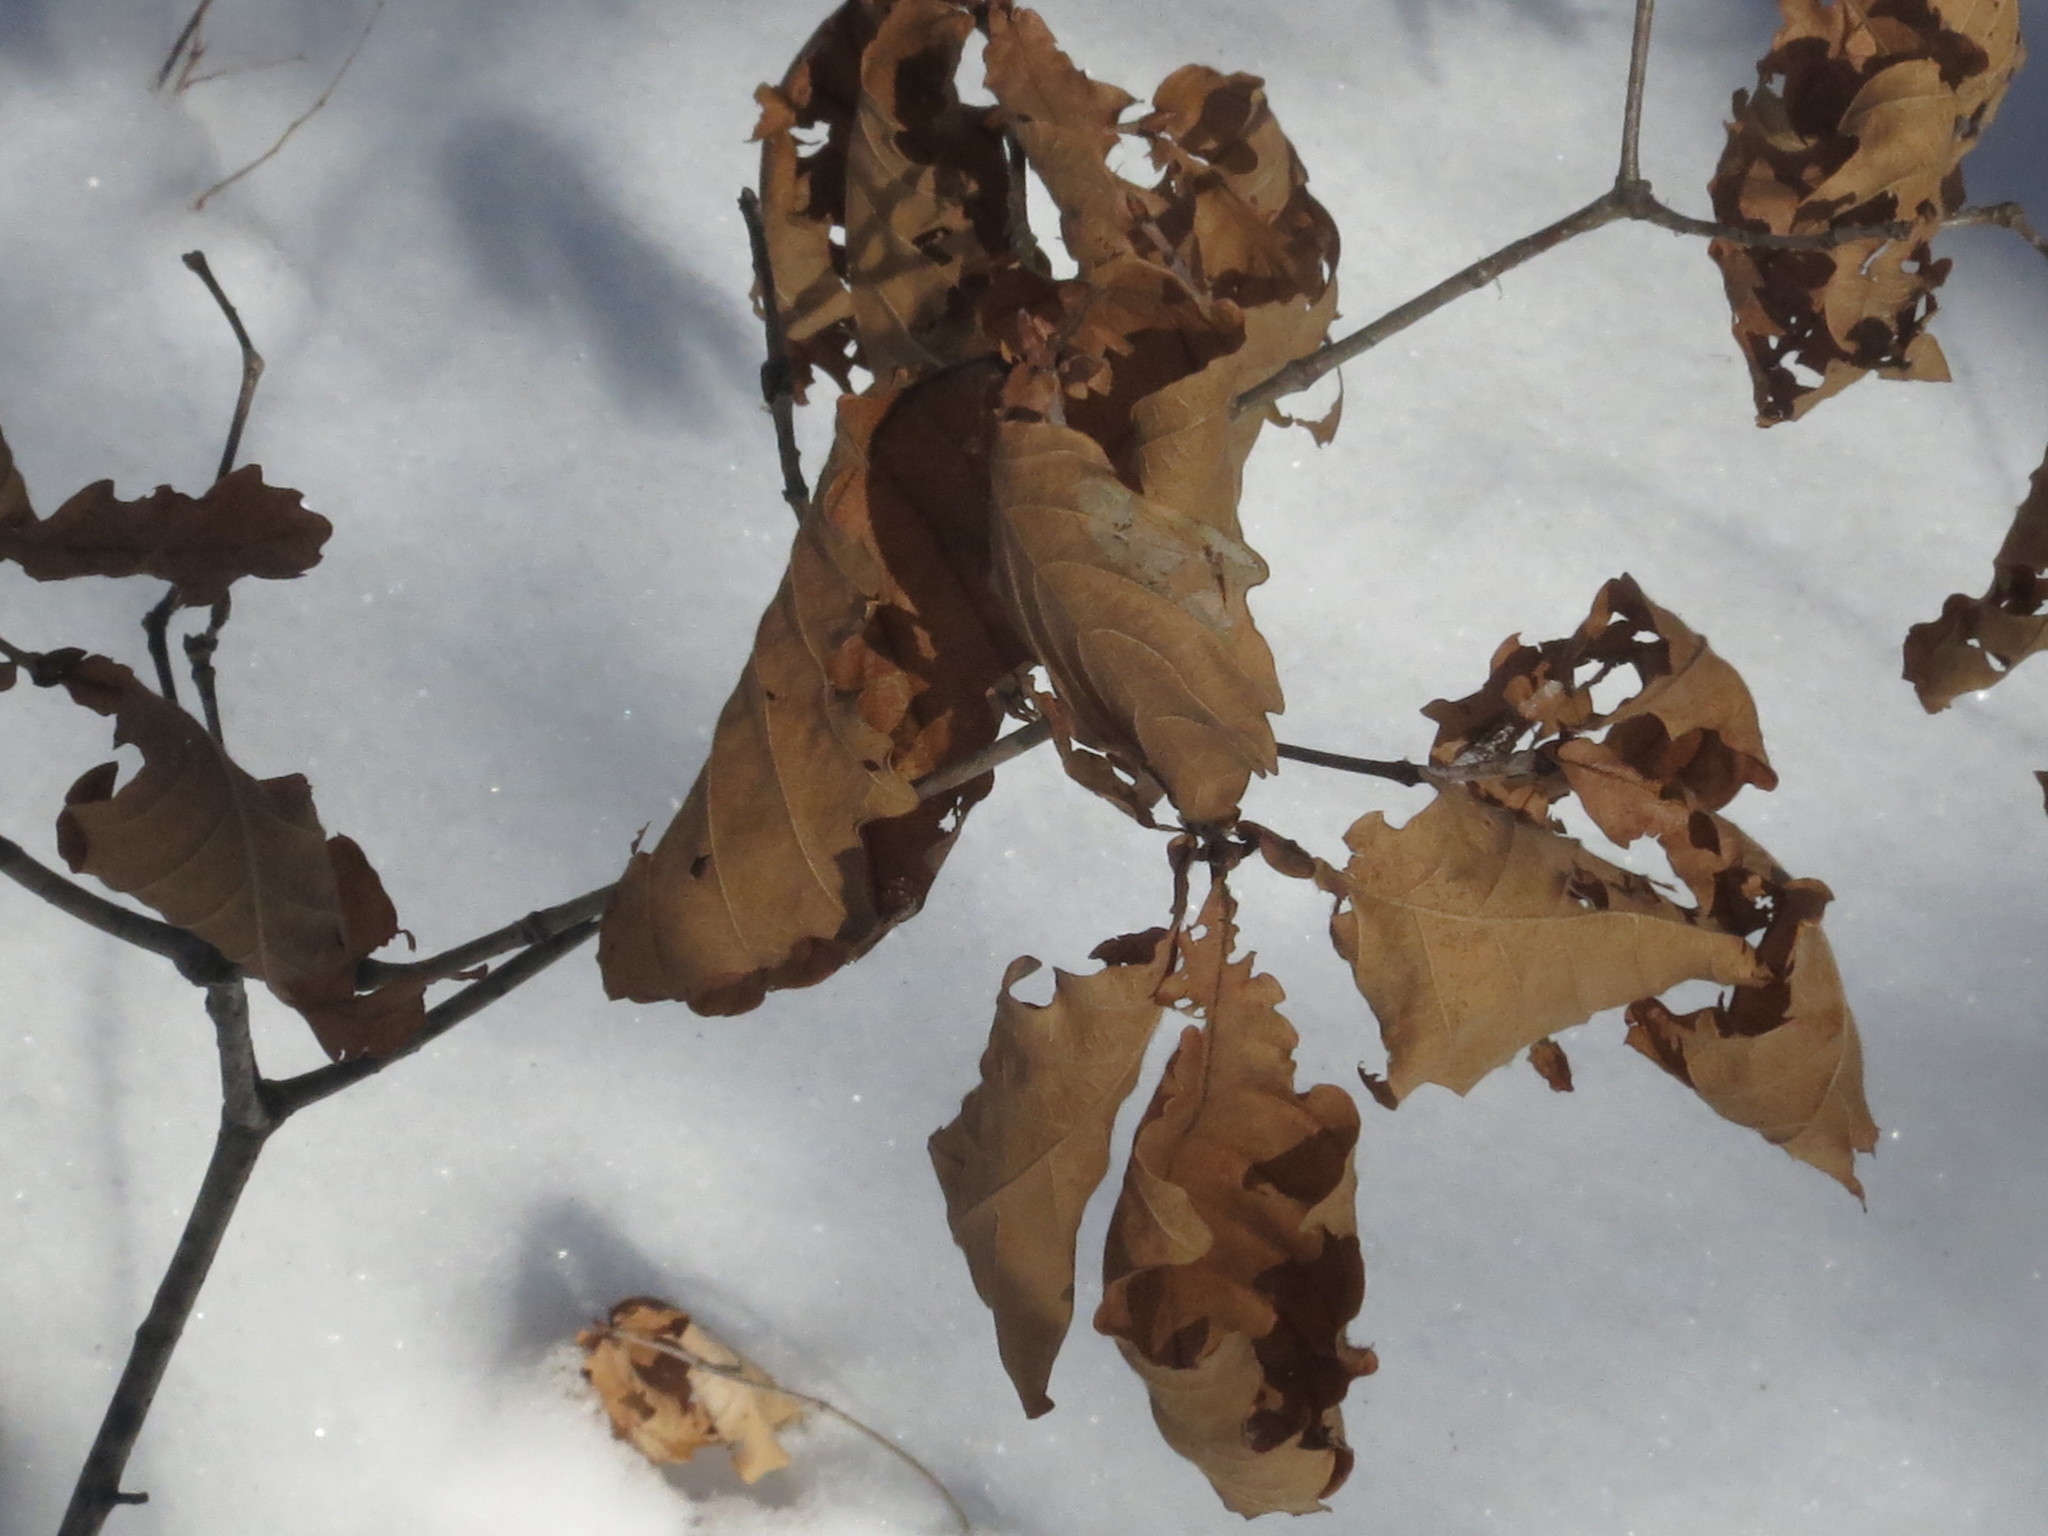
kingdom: Plantae
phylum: Tracheophyta
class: Magnoliopsida
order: Fagales
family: Fagaceae
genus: Quercus
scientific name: Quercus mongolica
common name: Mongolian oak
